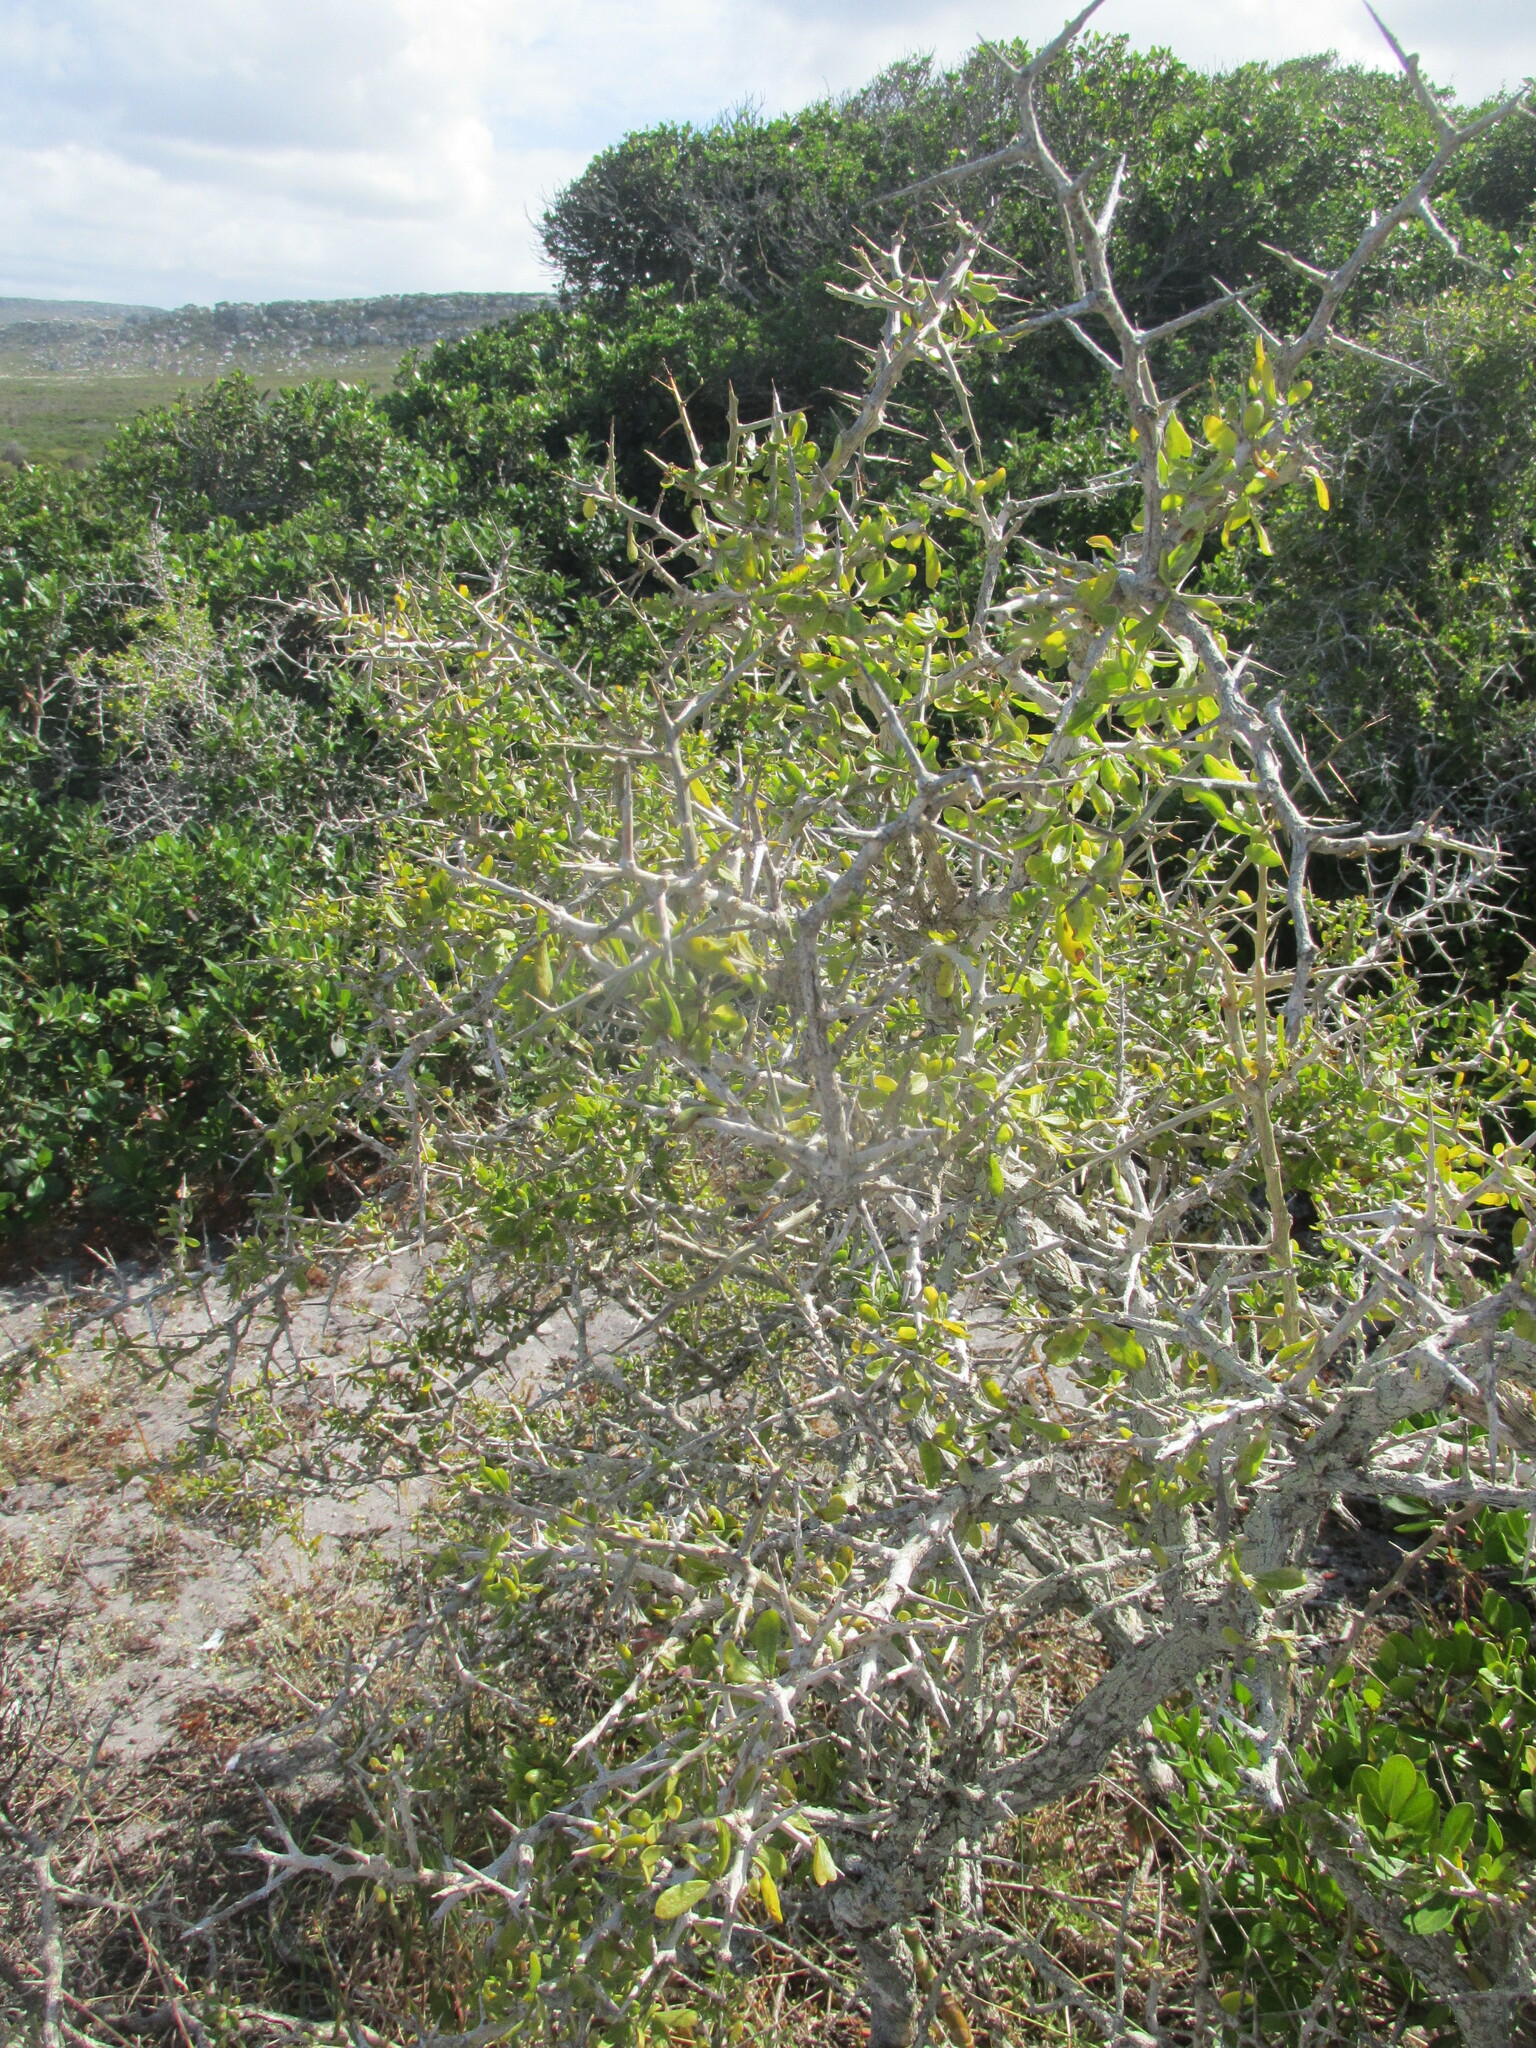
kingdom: Plantae
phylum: Tracheophyta
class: Magnoliopsida
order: Solanales
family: Solanaceae
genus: Lycium
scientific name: Lycium ferocissimum
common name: African boxthorn
